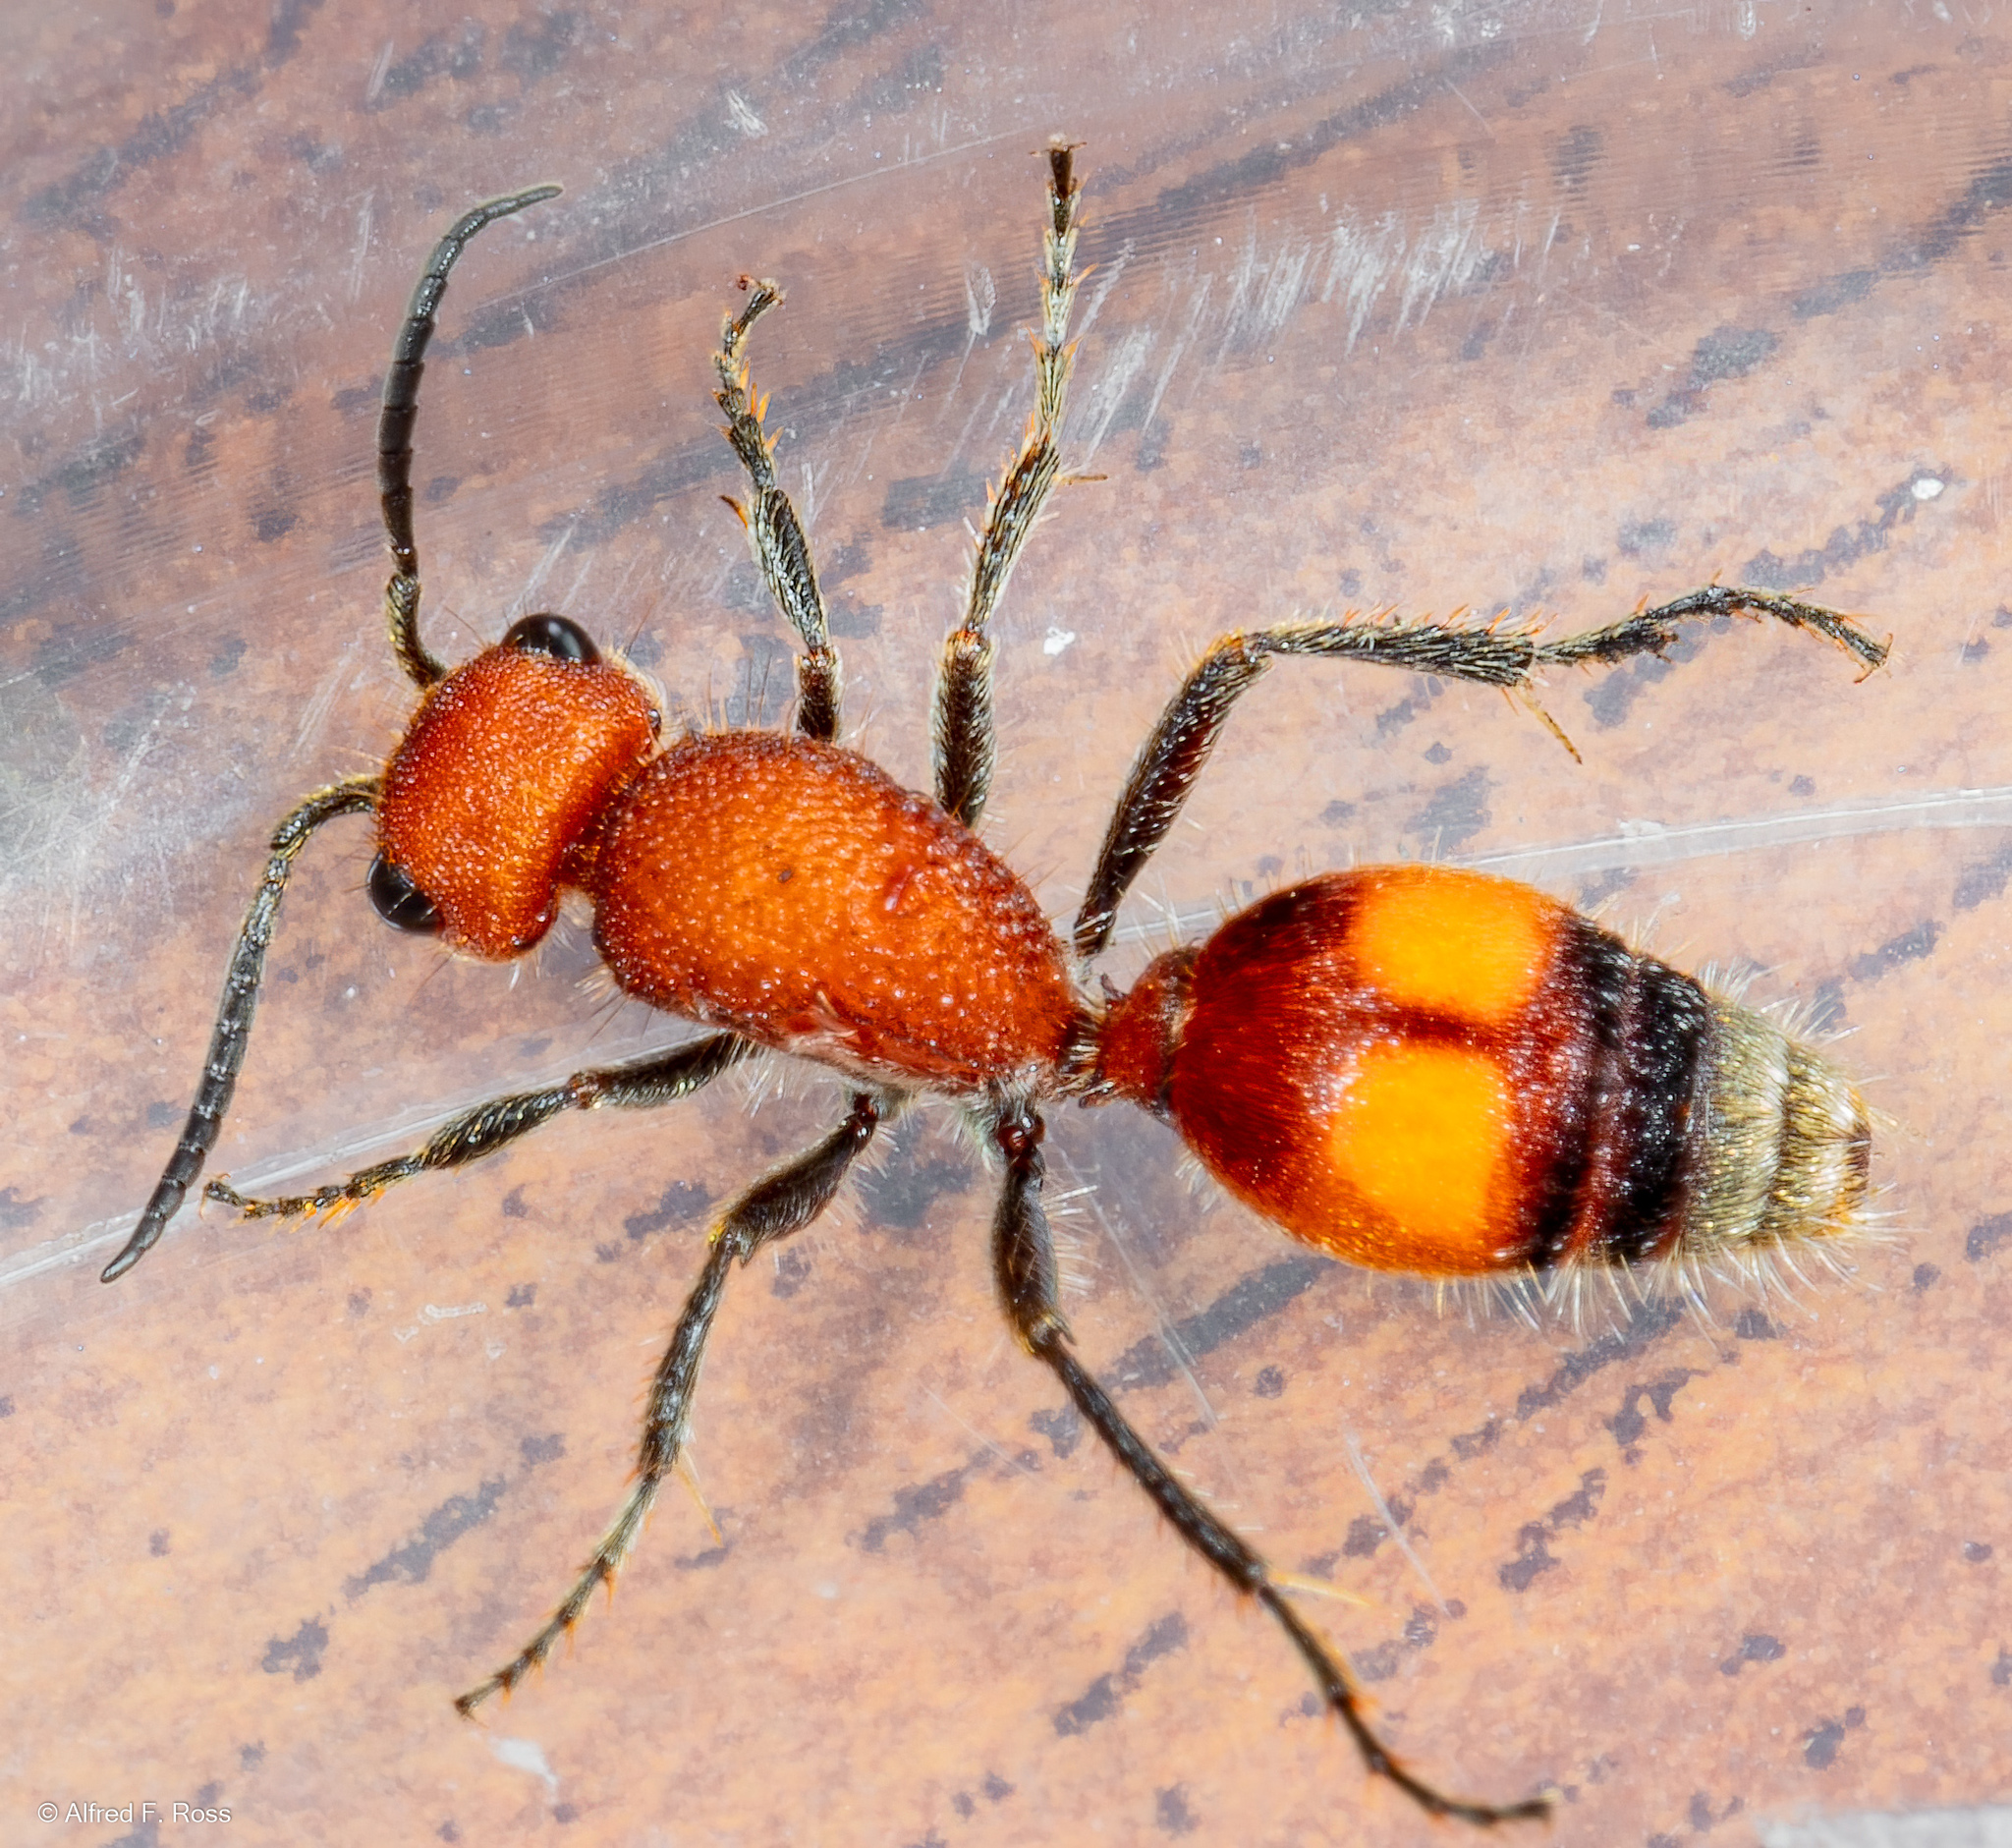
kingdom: Animalia
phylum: Arthropoda
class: Insecta
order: Hymenoptera
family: Mutillidae
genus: Dasymutilla
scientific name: Dasymutilla
